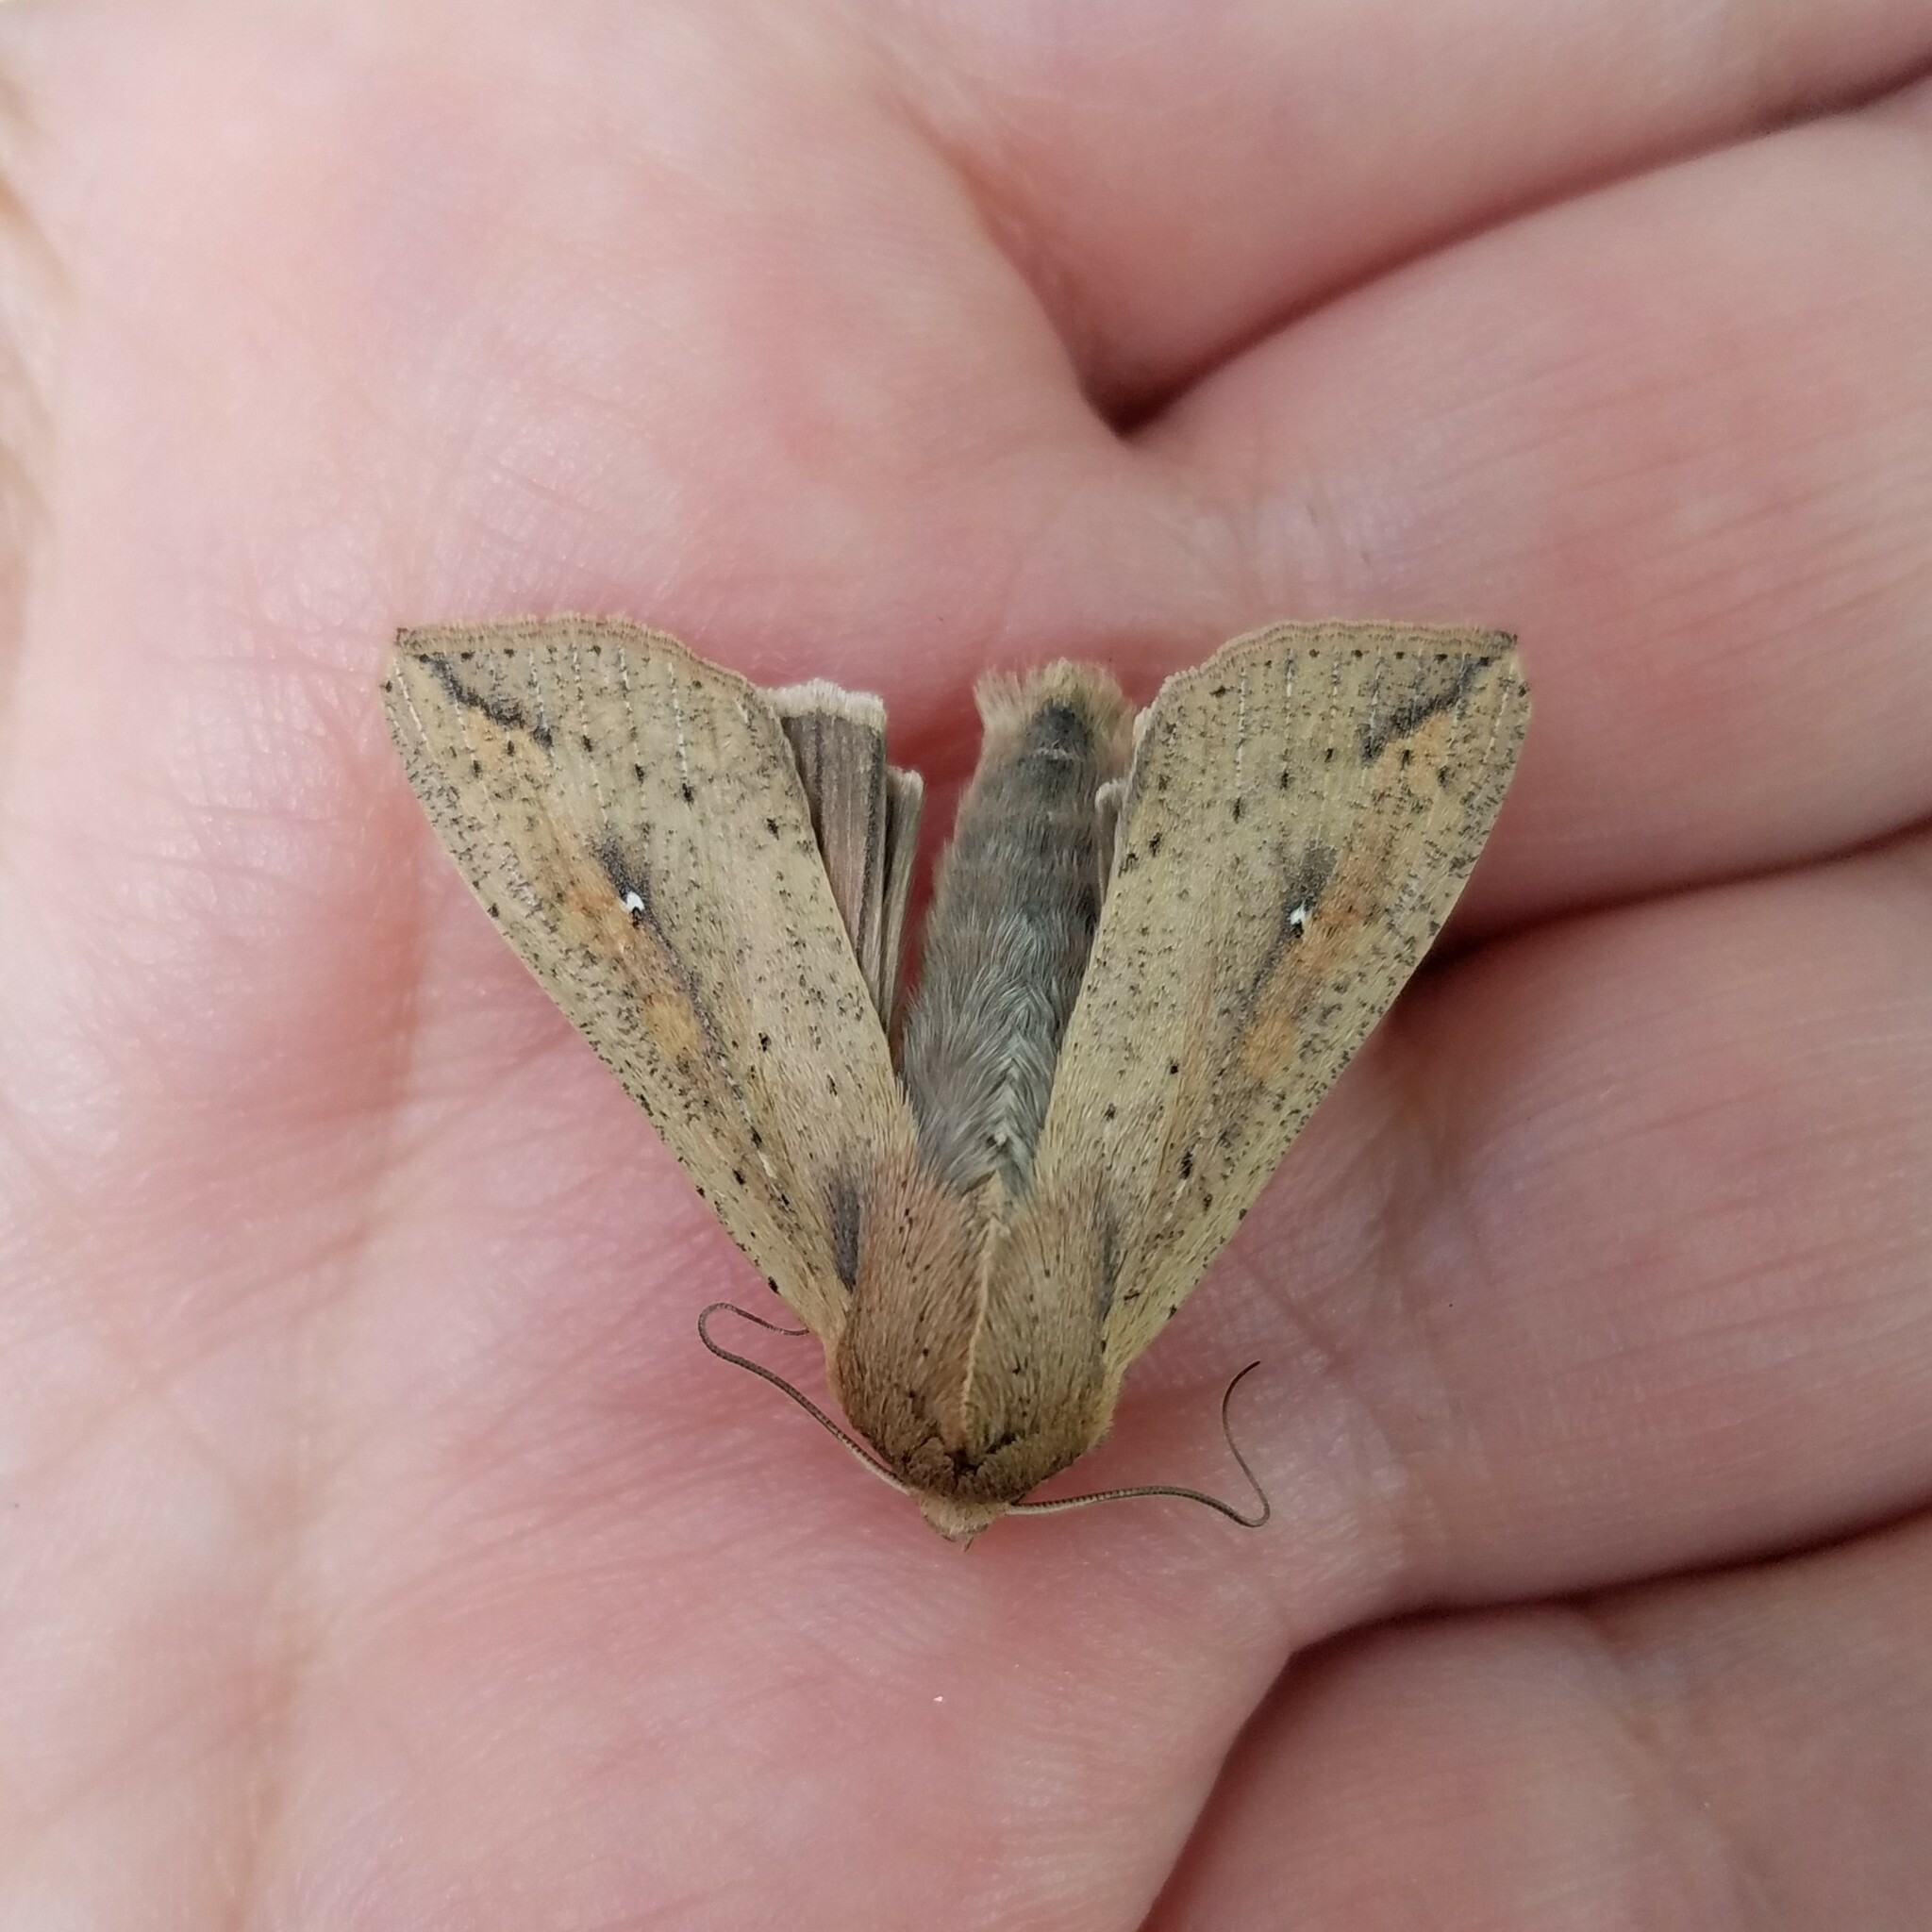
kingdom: Animalia
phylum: Arthropoda
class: Insecta
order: Lepidoptera
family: Noctuidae
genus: Mythimna
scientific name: Mythimna unipuncta
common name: White-speck
